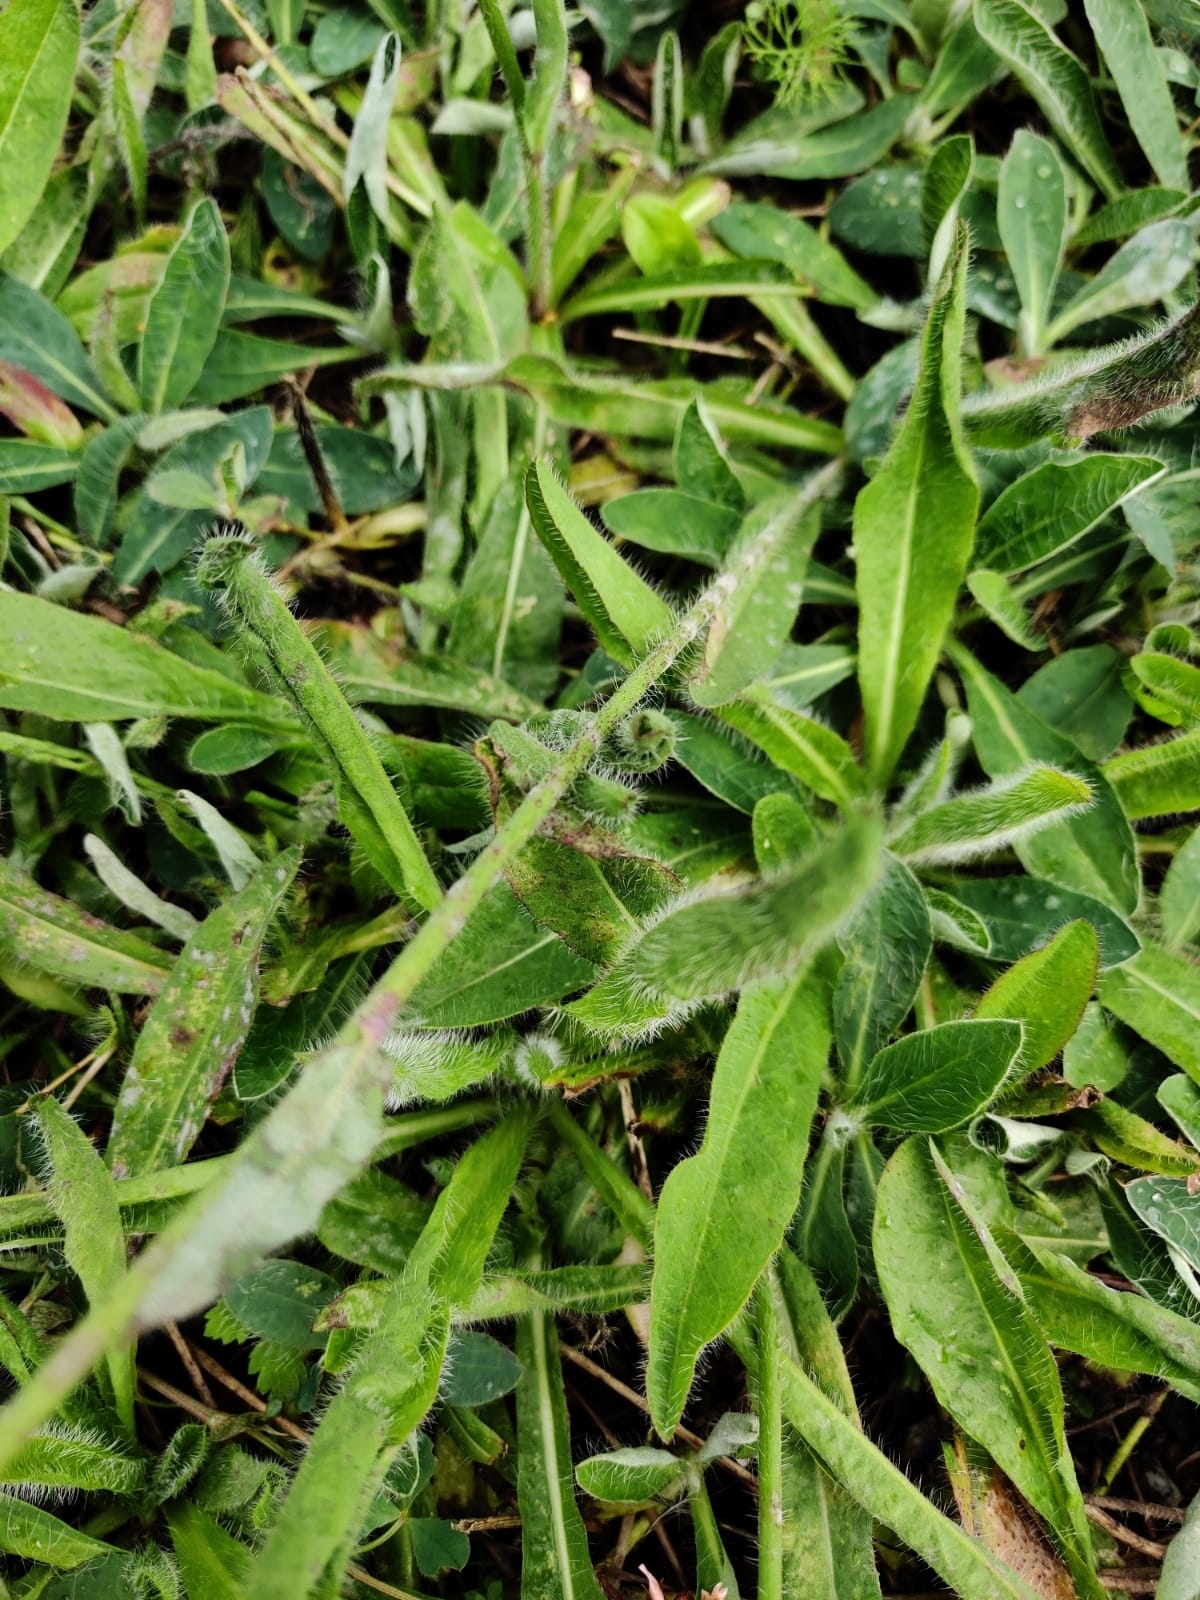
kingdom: Plantae
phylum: Tracheophyta
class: Magnoliopsida
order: Asterales
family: Asteraceae
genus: Pilosella
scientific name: Pilosella aurantiaca
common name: Fox-and-cubs
